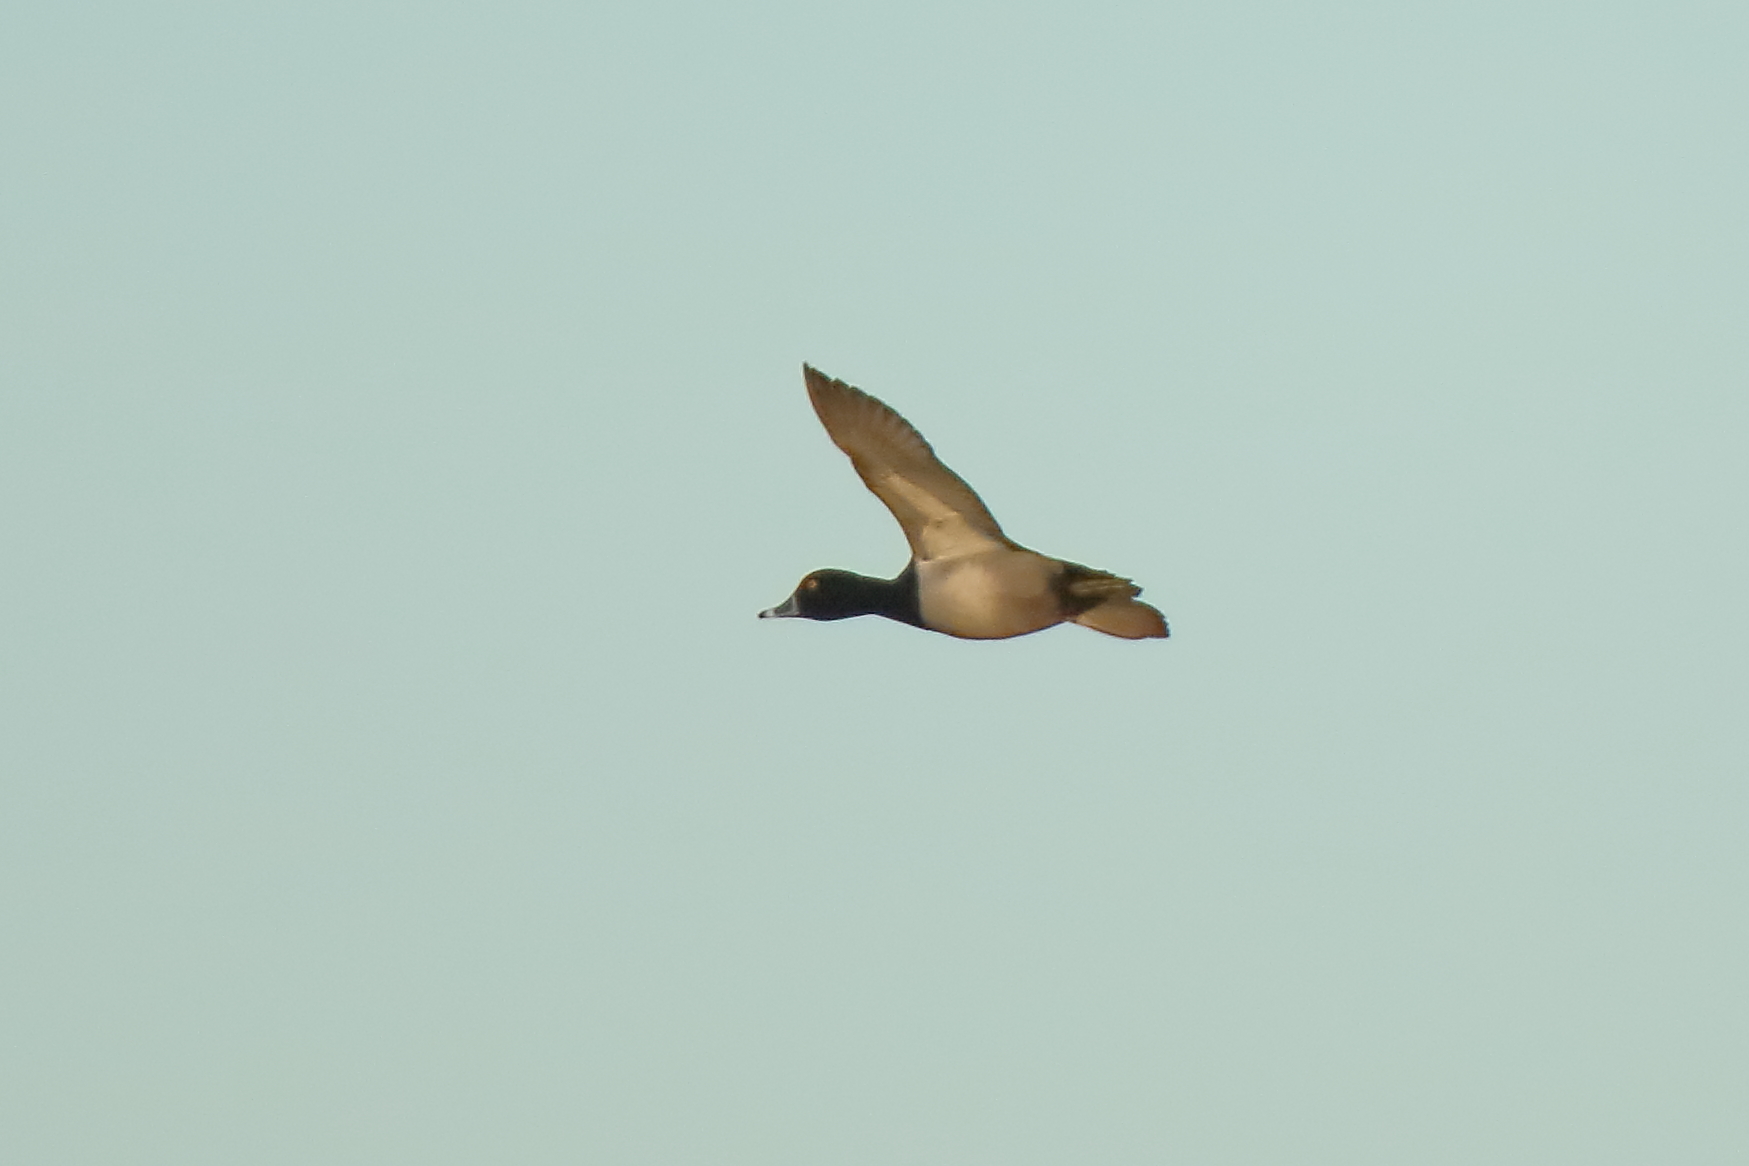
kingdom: Animalia
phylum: Chordata
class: Aves
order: Anseriformes
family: Anatidae
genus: Aythya
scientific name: Aythya collaris
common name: Ring-necked duck
